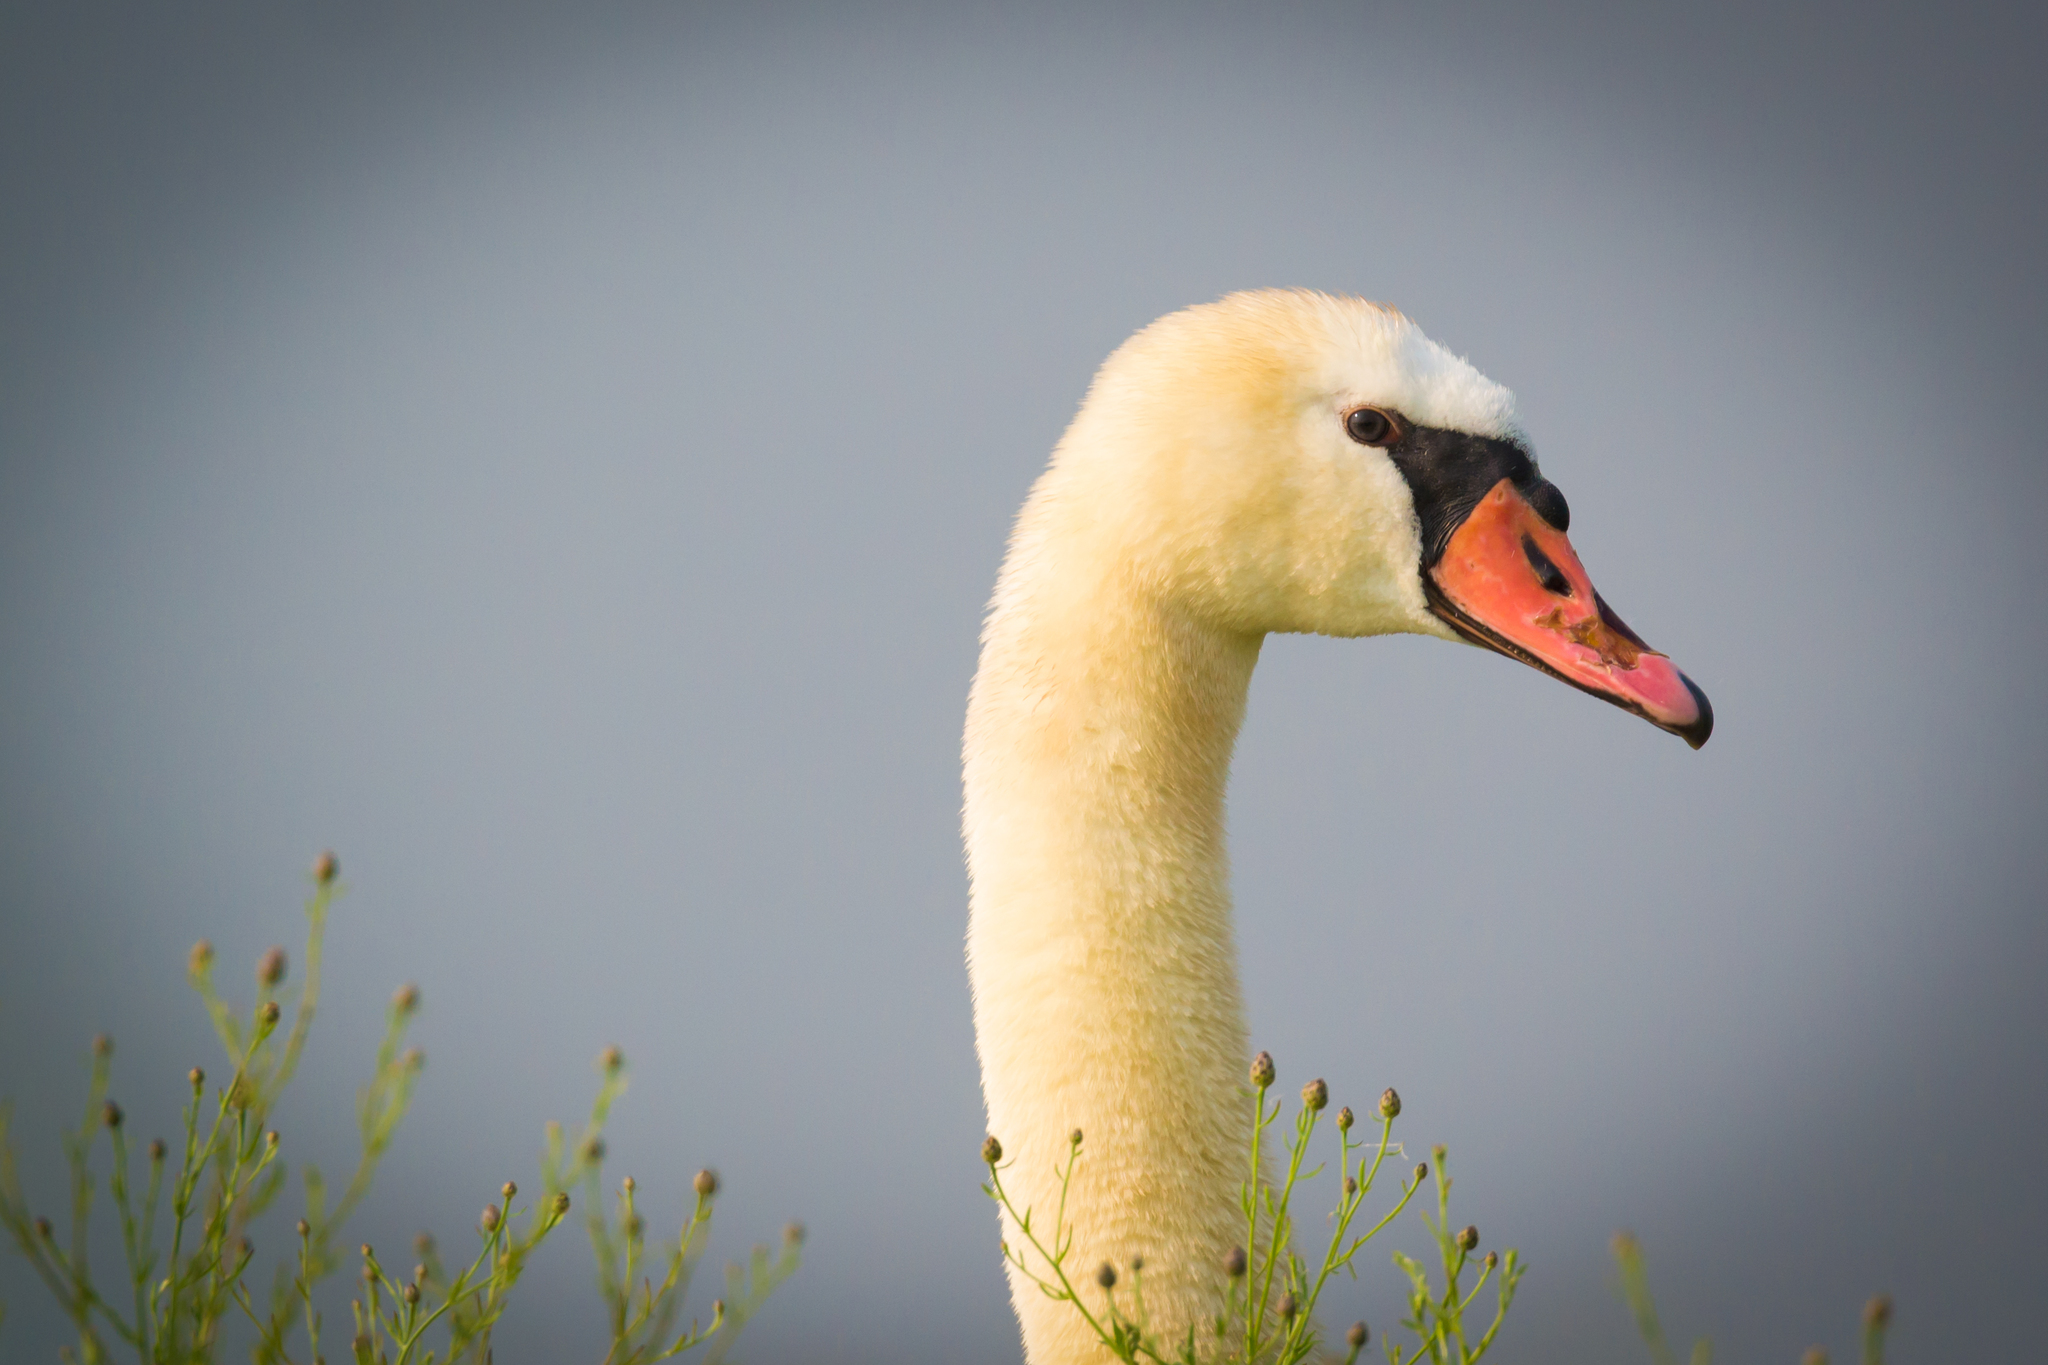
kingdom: Animalia
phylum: Chordata
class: Aves
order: Anseriformes
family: Anatidae
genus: Cygnus
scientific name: Cygnus olor
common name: Mute swan
